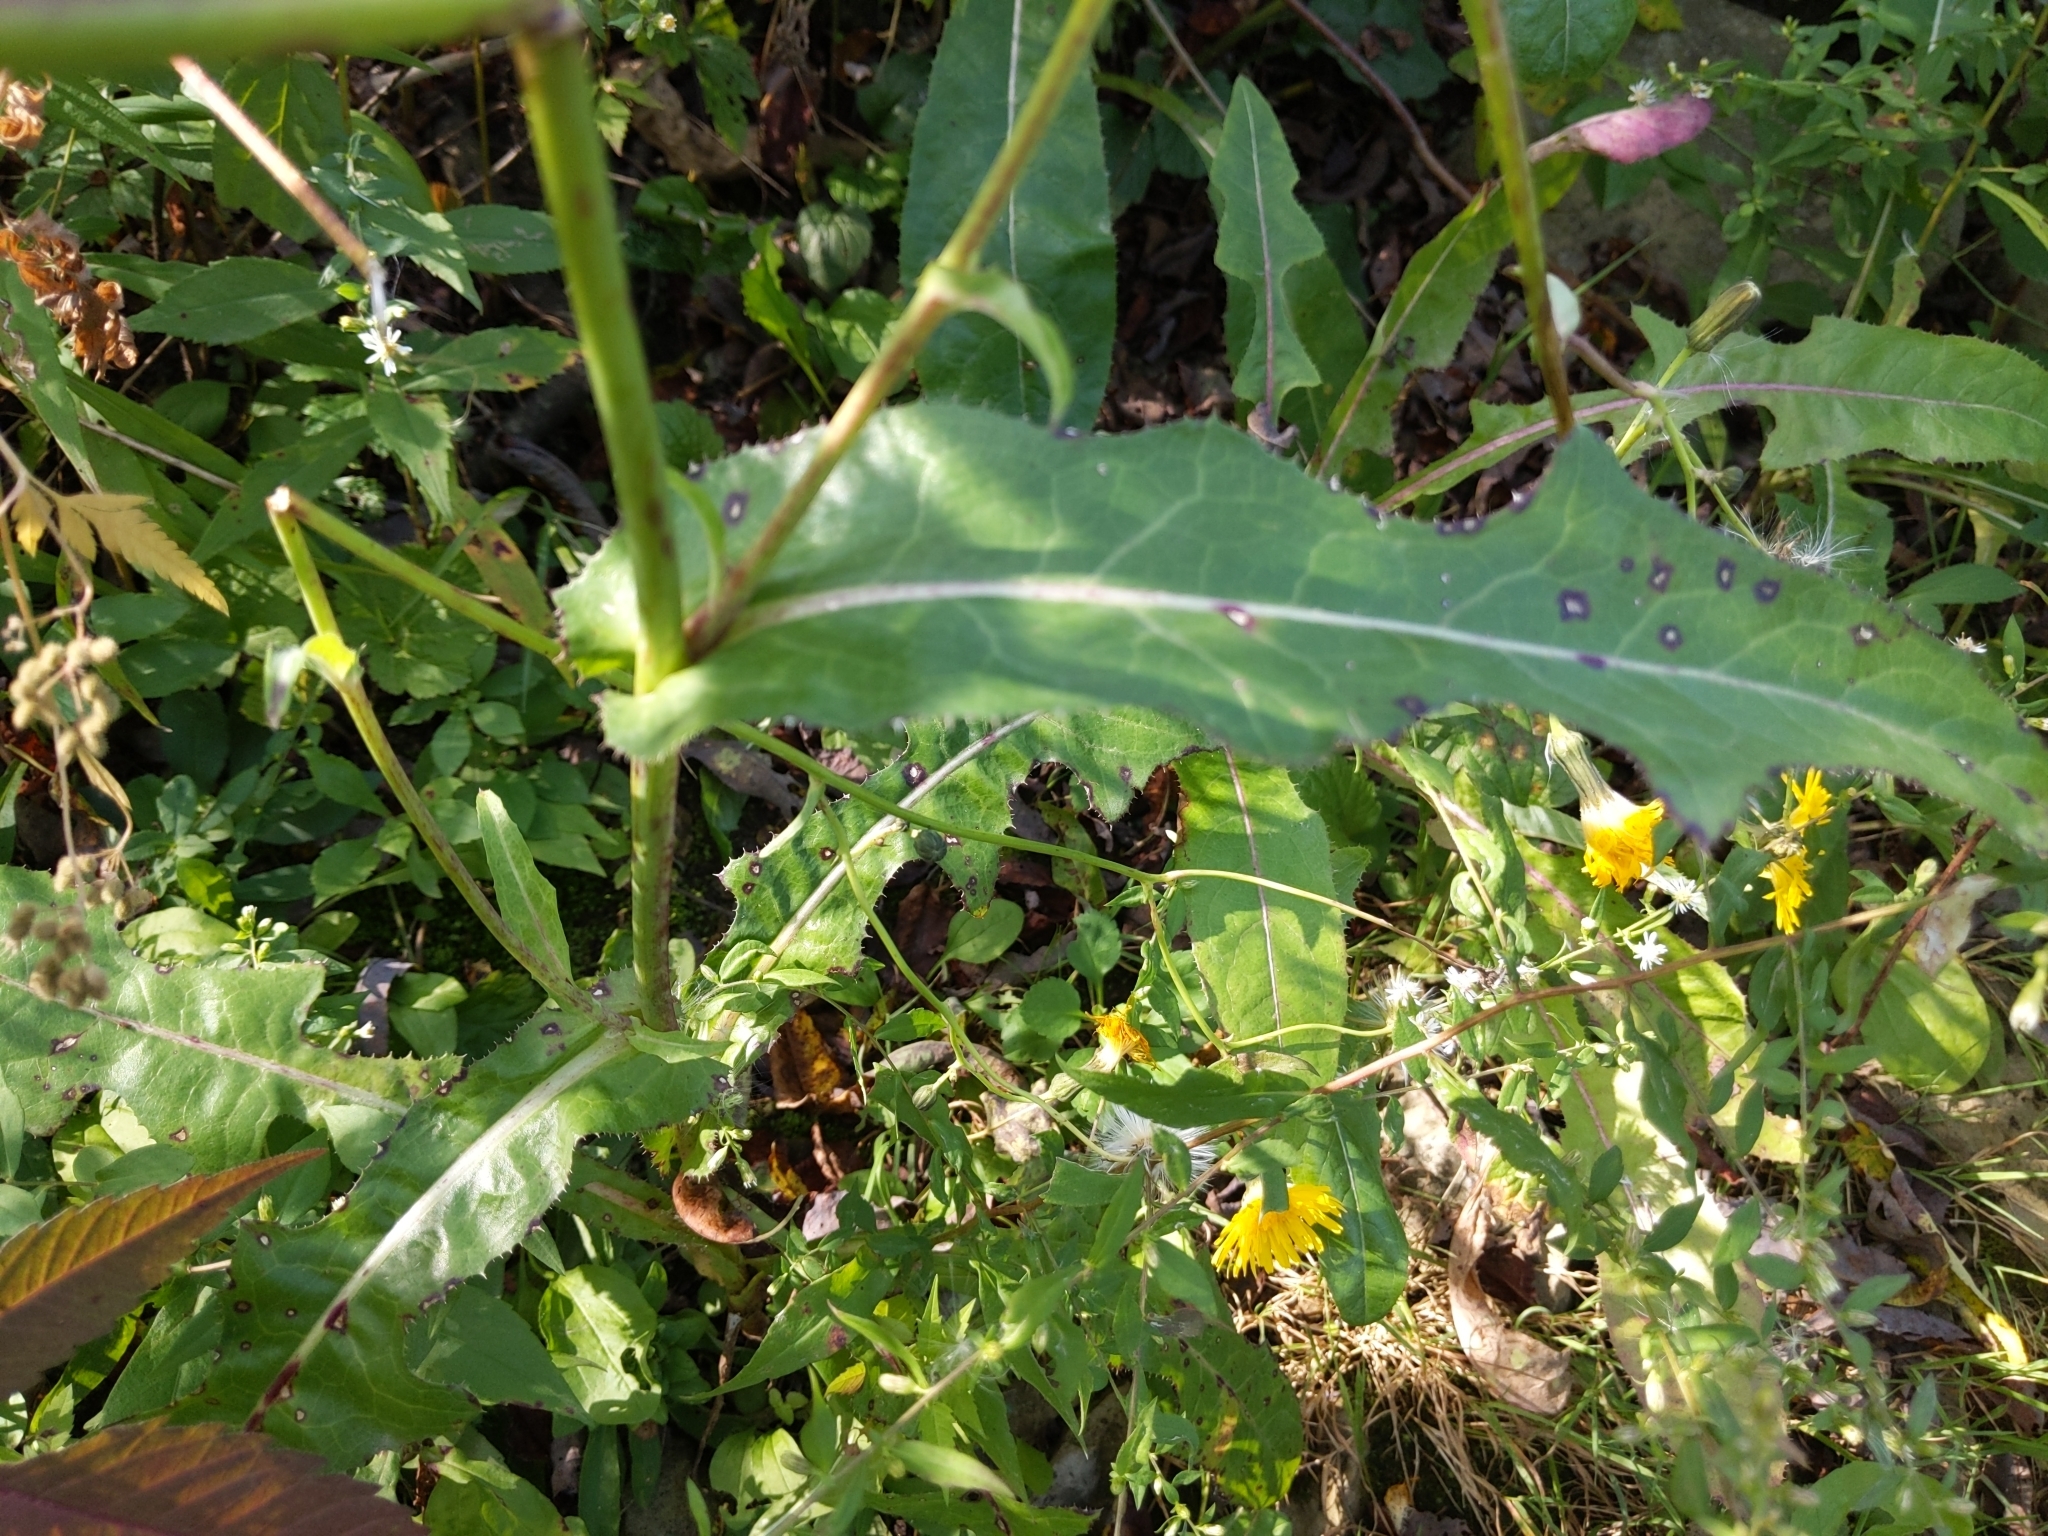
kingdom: Plantae
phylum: Tracheophyta
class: Magnoliopsida
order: Asterales
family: Asteraceae
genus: Sonchus
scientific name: Sonchus arvensis
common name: Perennial sow-thistle
